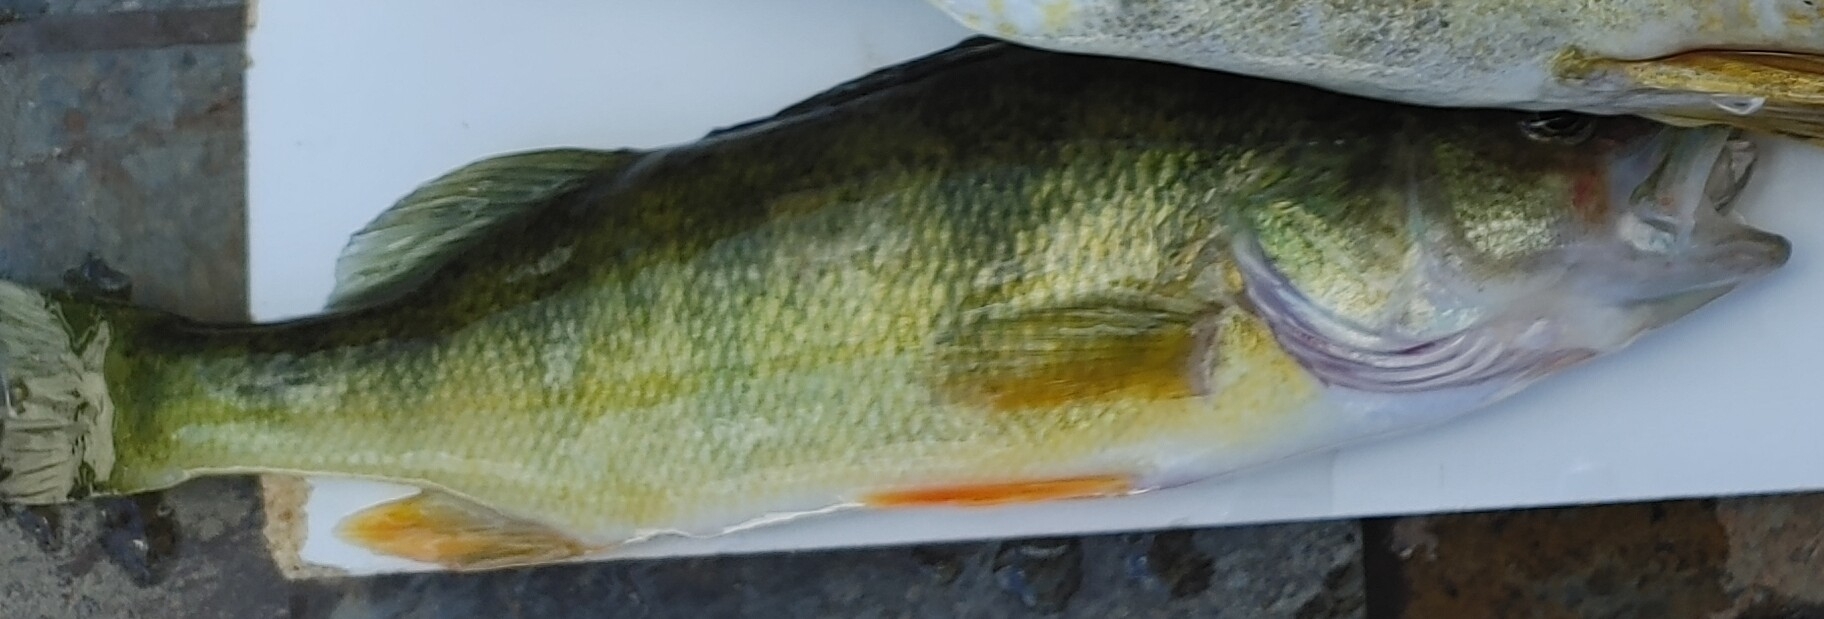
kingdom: Animalia
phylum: Chordata
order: Perciformes
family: Percidae
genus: Perca
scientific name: Perca flavescens
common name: Yellow perch
